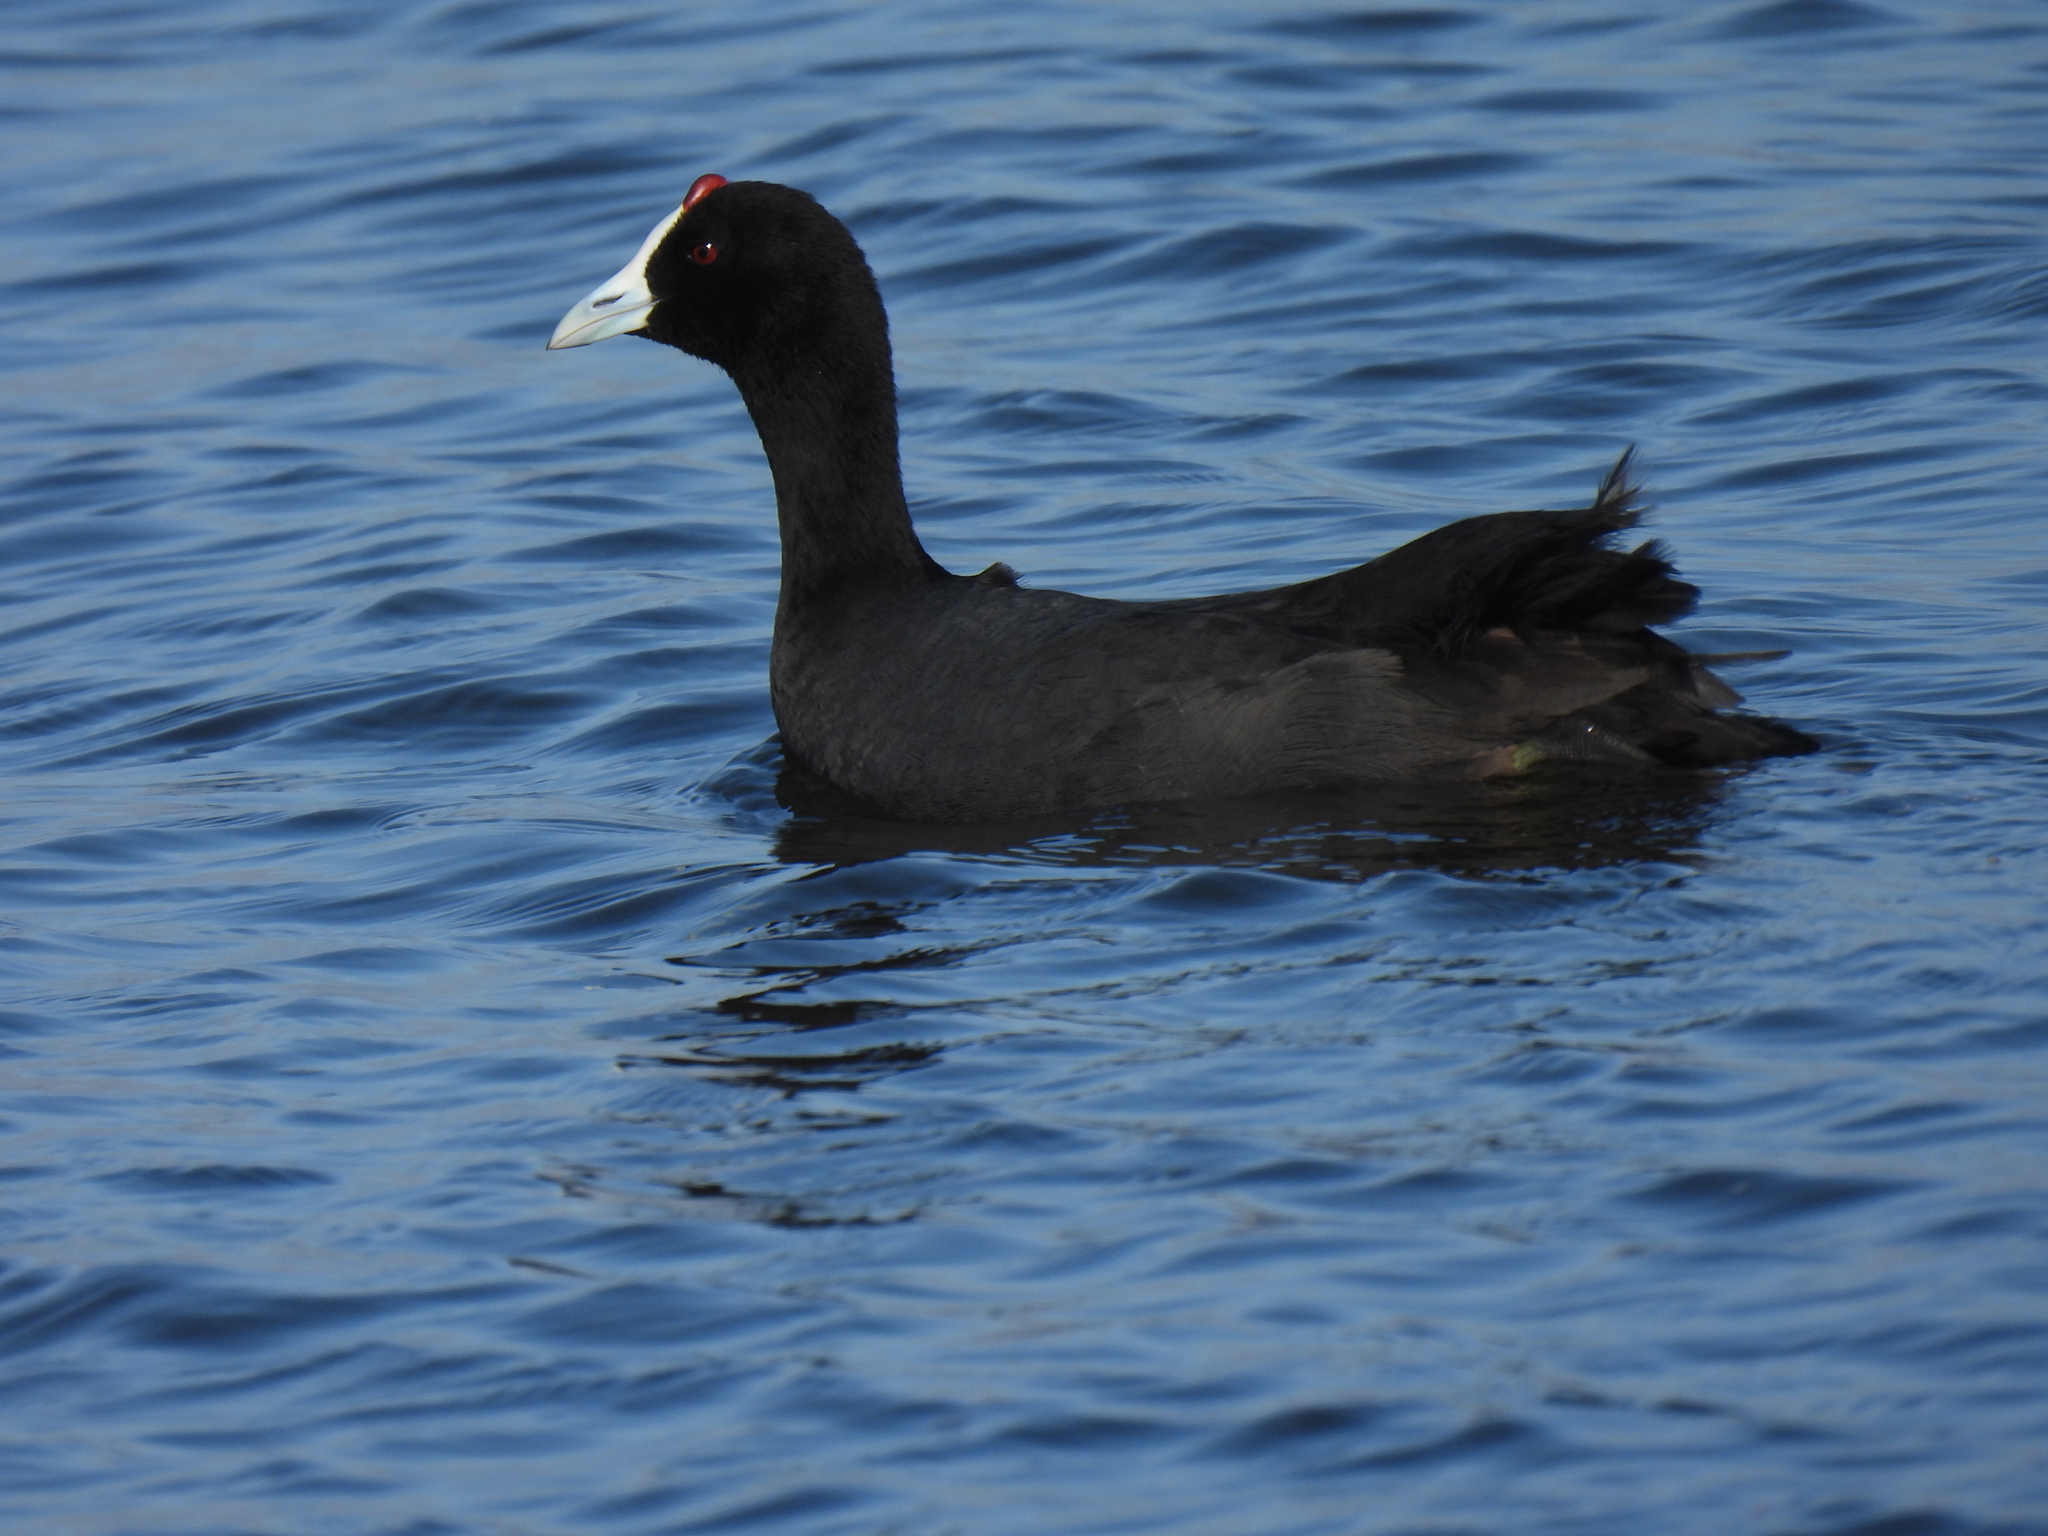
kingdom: Animalia
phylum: Chordata
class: Aves
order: Gruiformes
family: Rallidae
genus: Fulica
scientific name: Fulica cristata
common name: Red-knobbed coot
